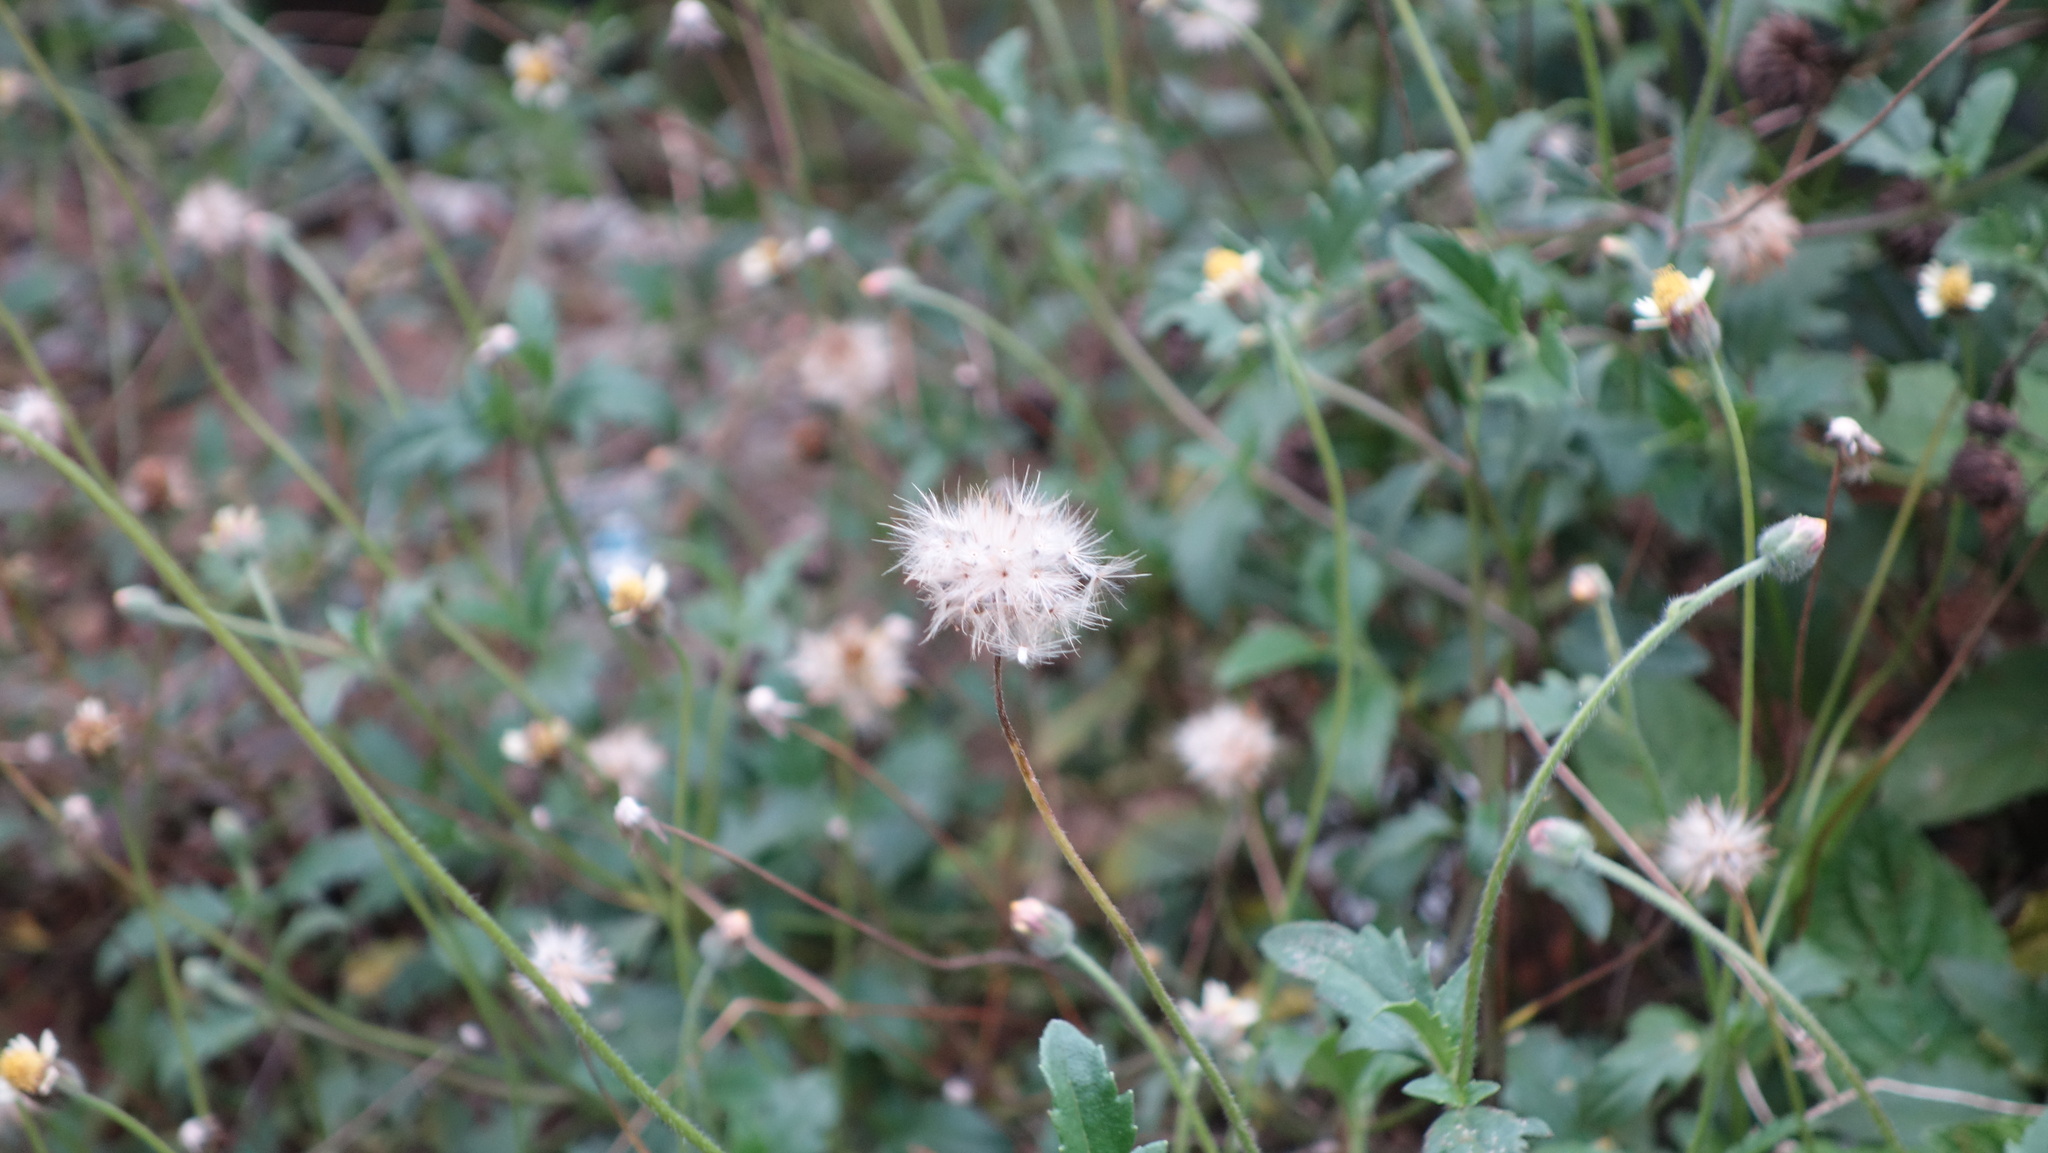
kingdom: Plantae
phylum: Tracheophyta
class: Magnoliopsida
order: Asterales
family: Asteraceae
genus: Tridax
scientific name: Tridax procumbens
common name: Coatbuttons
